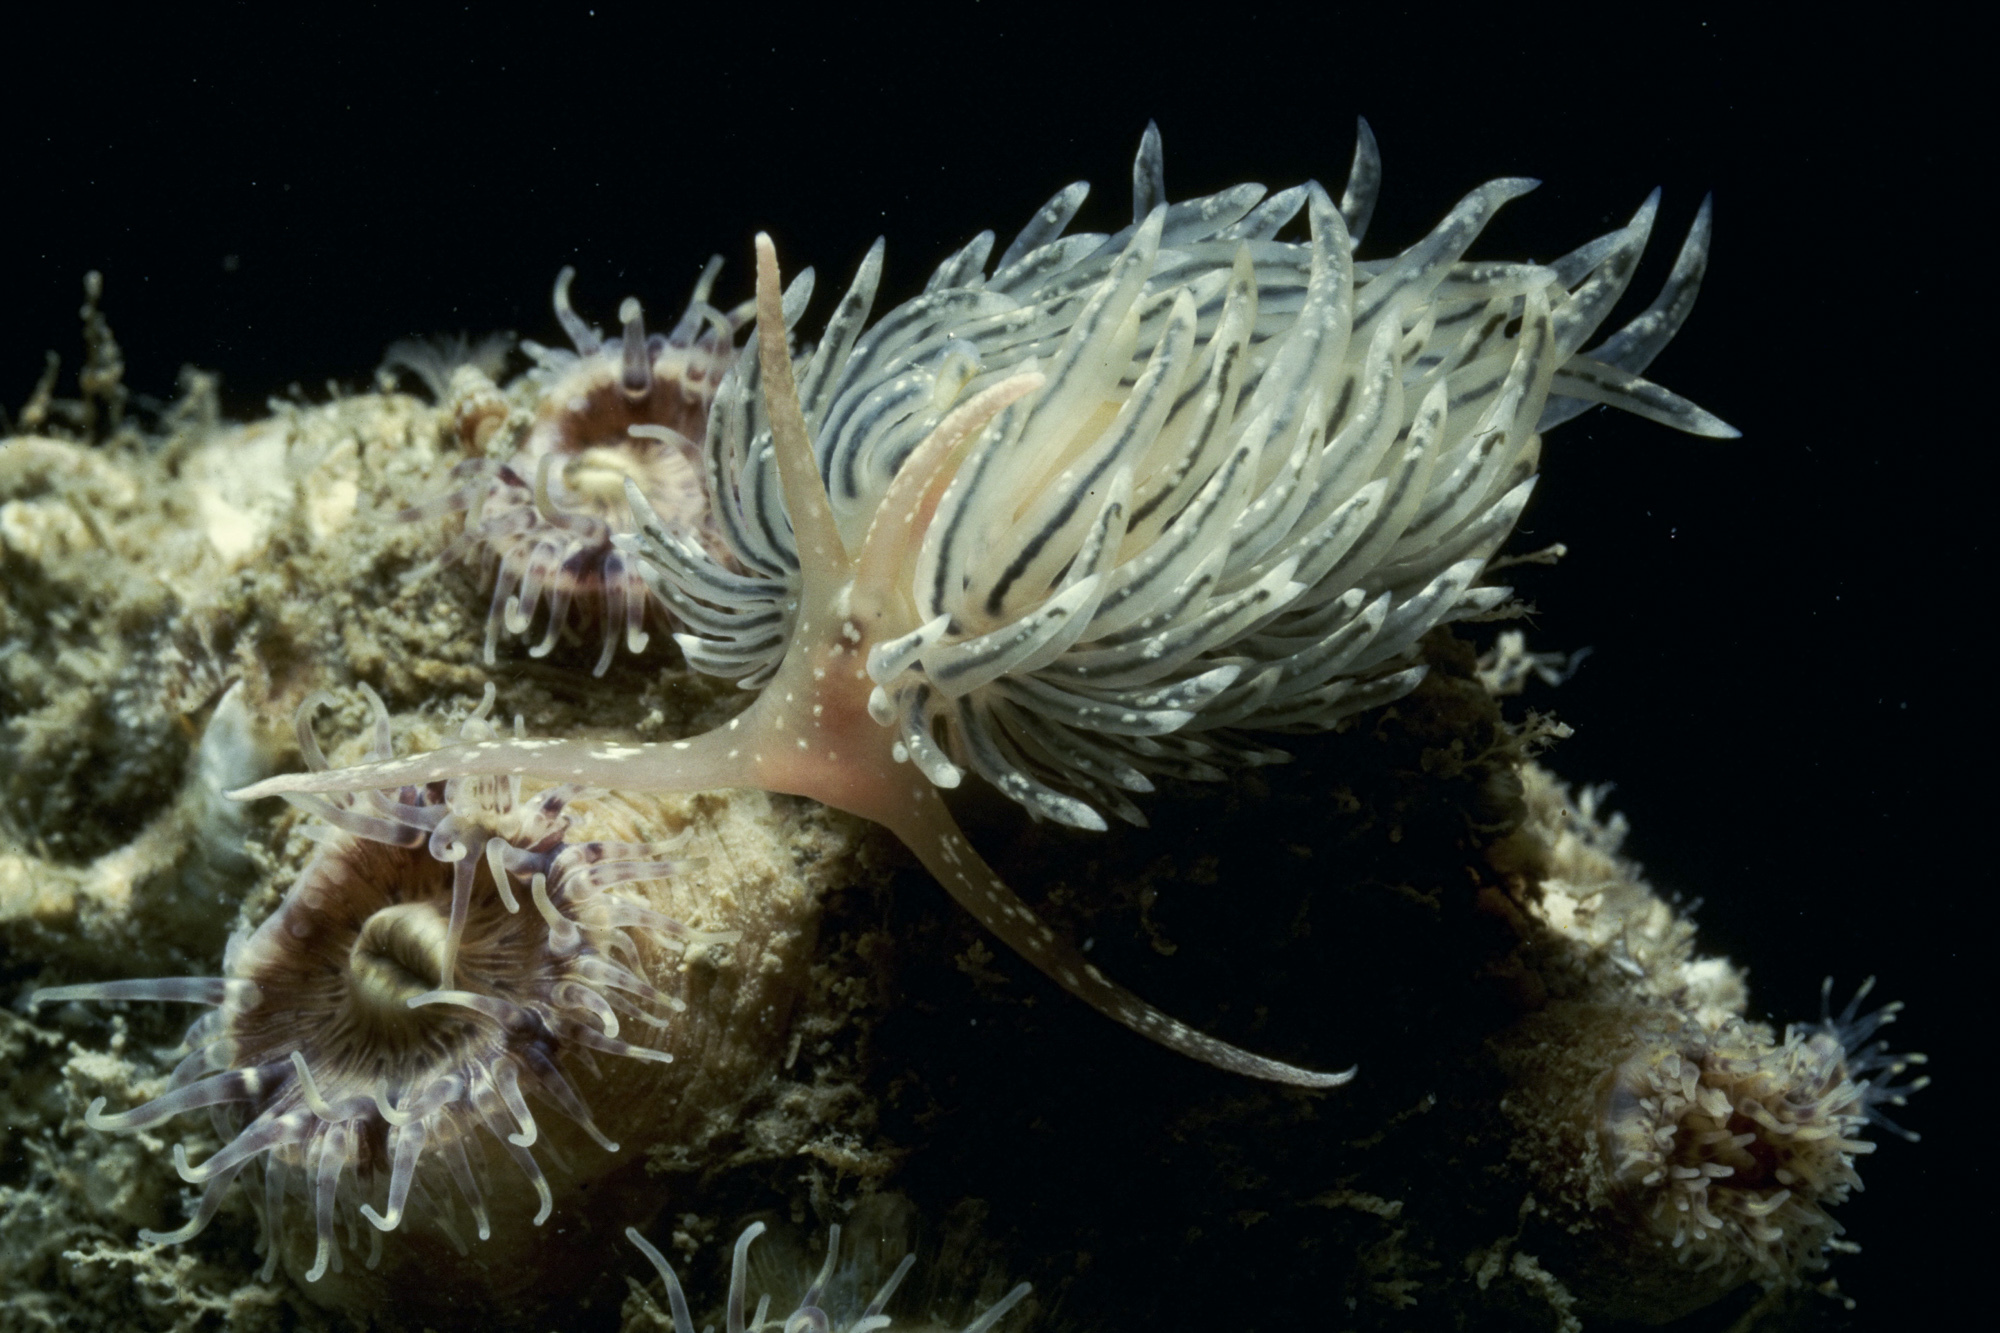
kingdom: Animalia
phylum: Mollusca
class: Gastropoda
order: Nudibranchia
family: Facelinidae
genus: Facelina
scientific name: Facelina dubia
